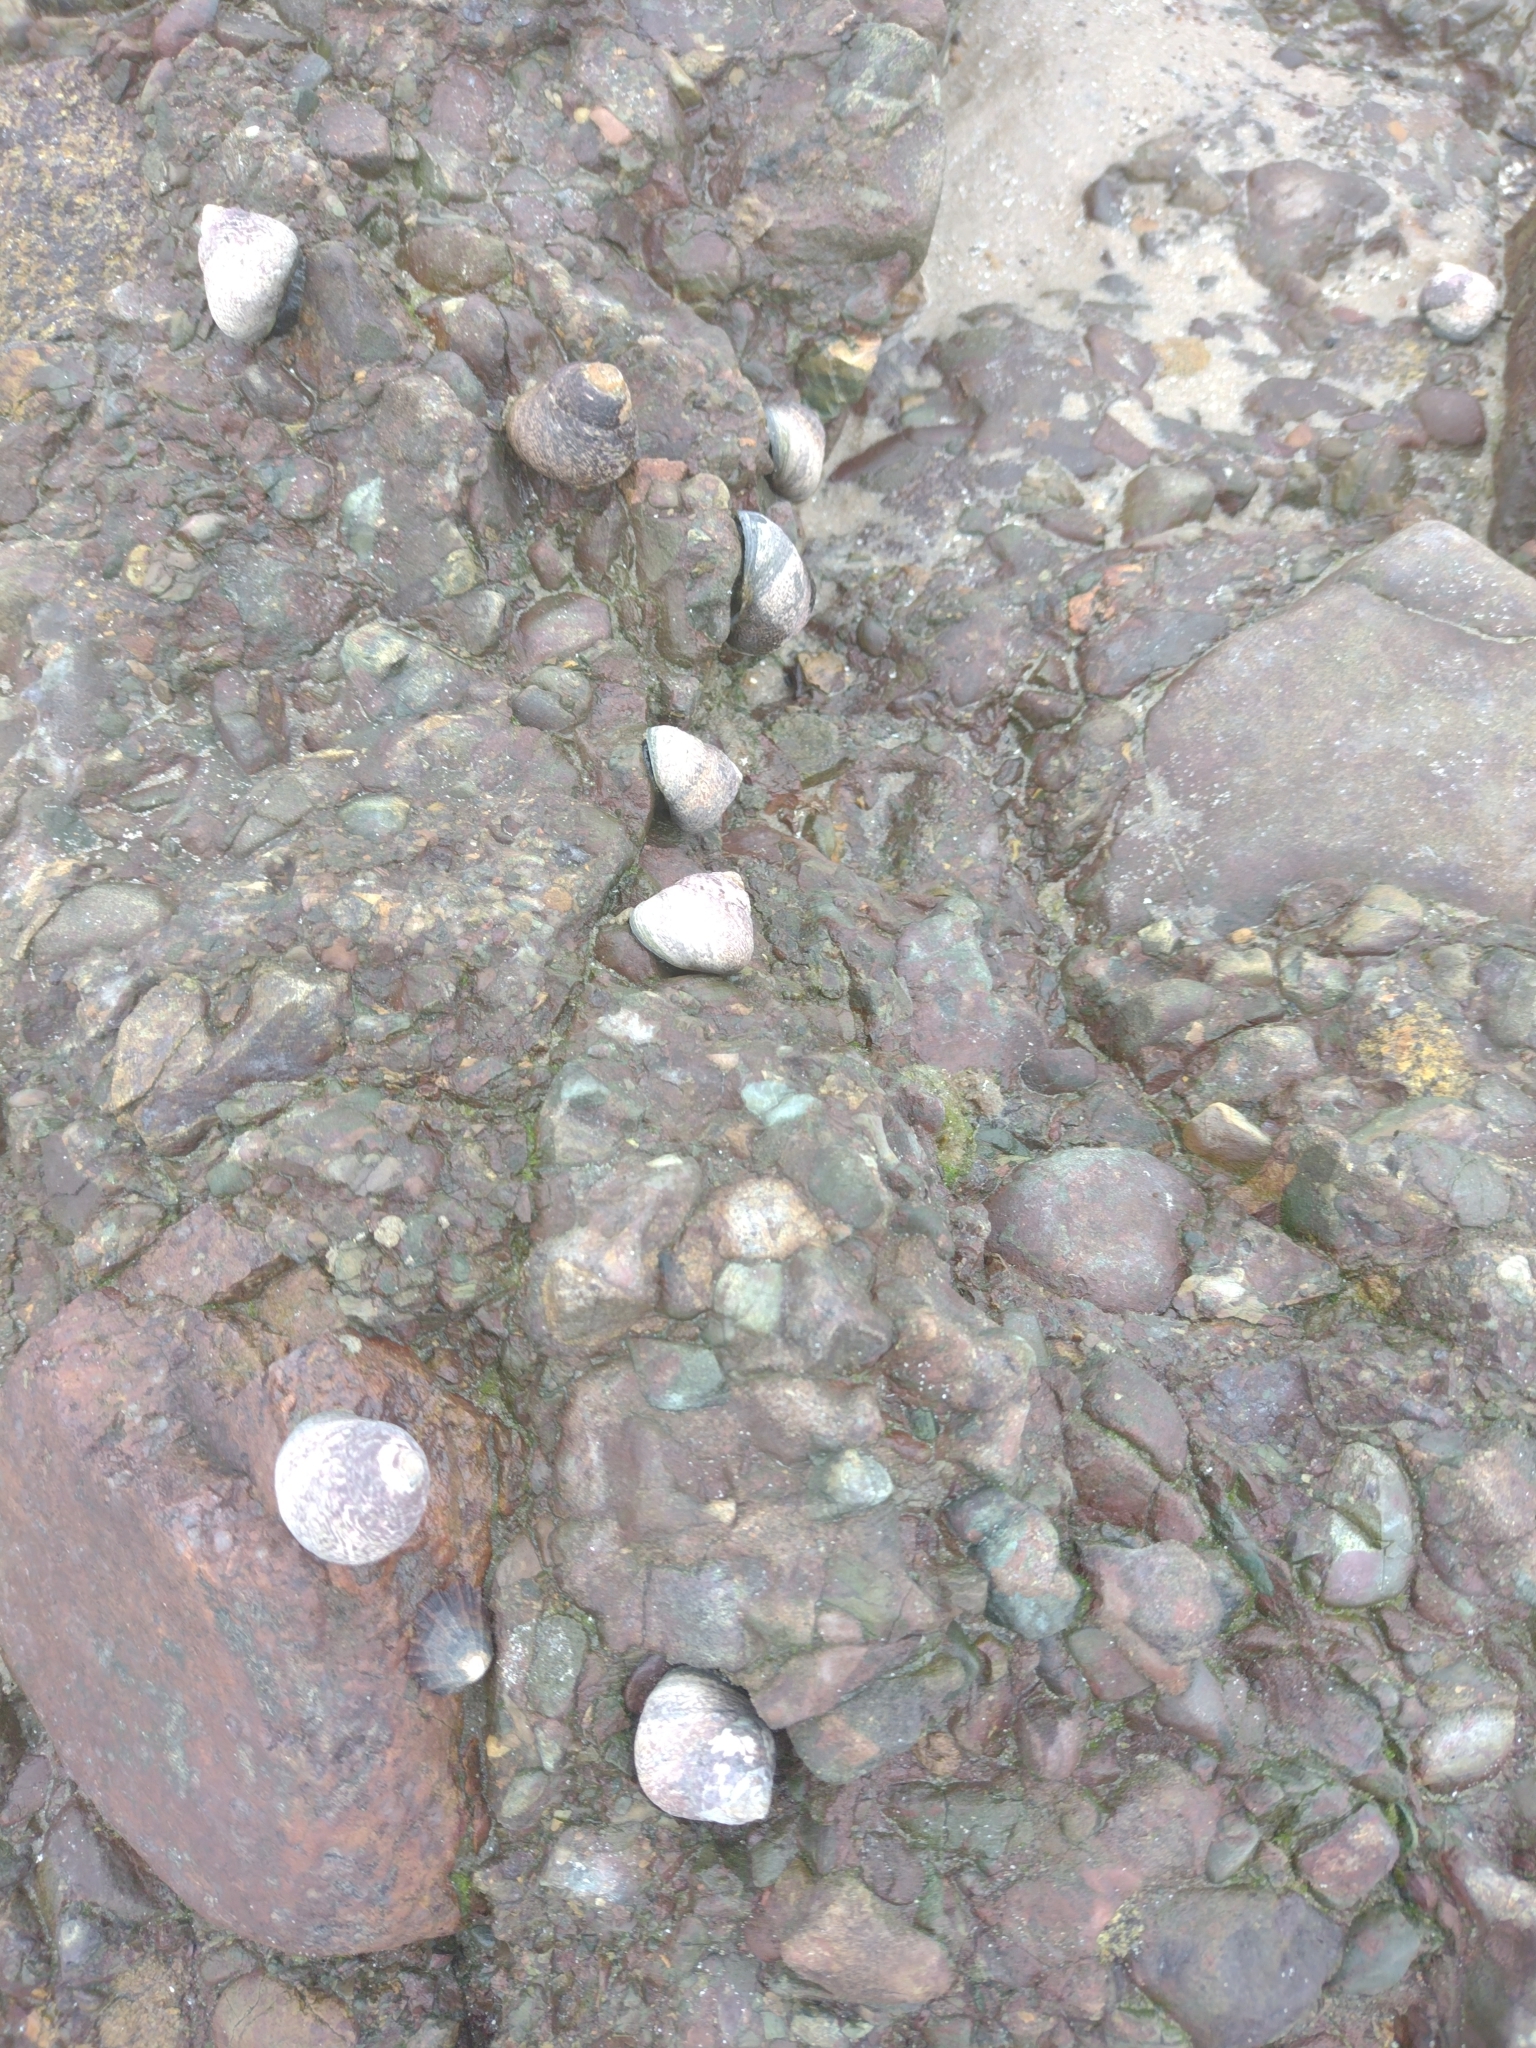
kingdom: Animalia
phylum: Mollusca
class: Gastropoda
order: Trochida
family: Trochidae
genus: Phorcus
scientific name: Phorcus lineatus
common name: Toothed top shell
